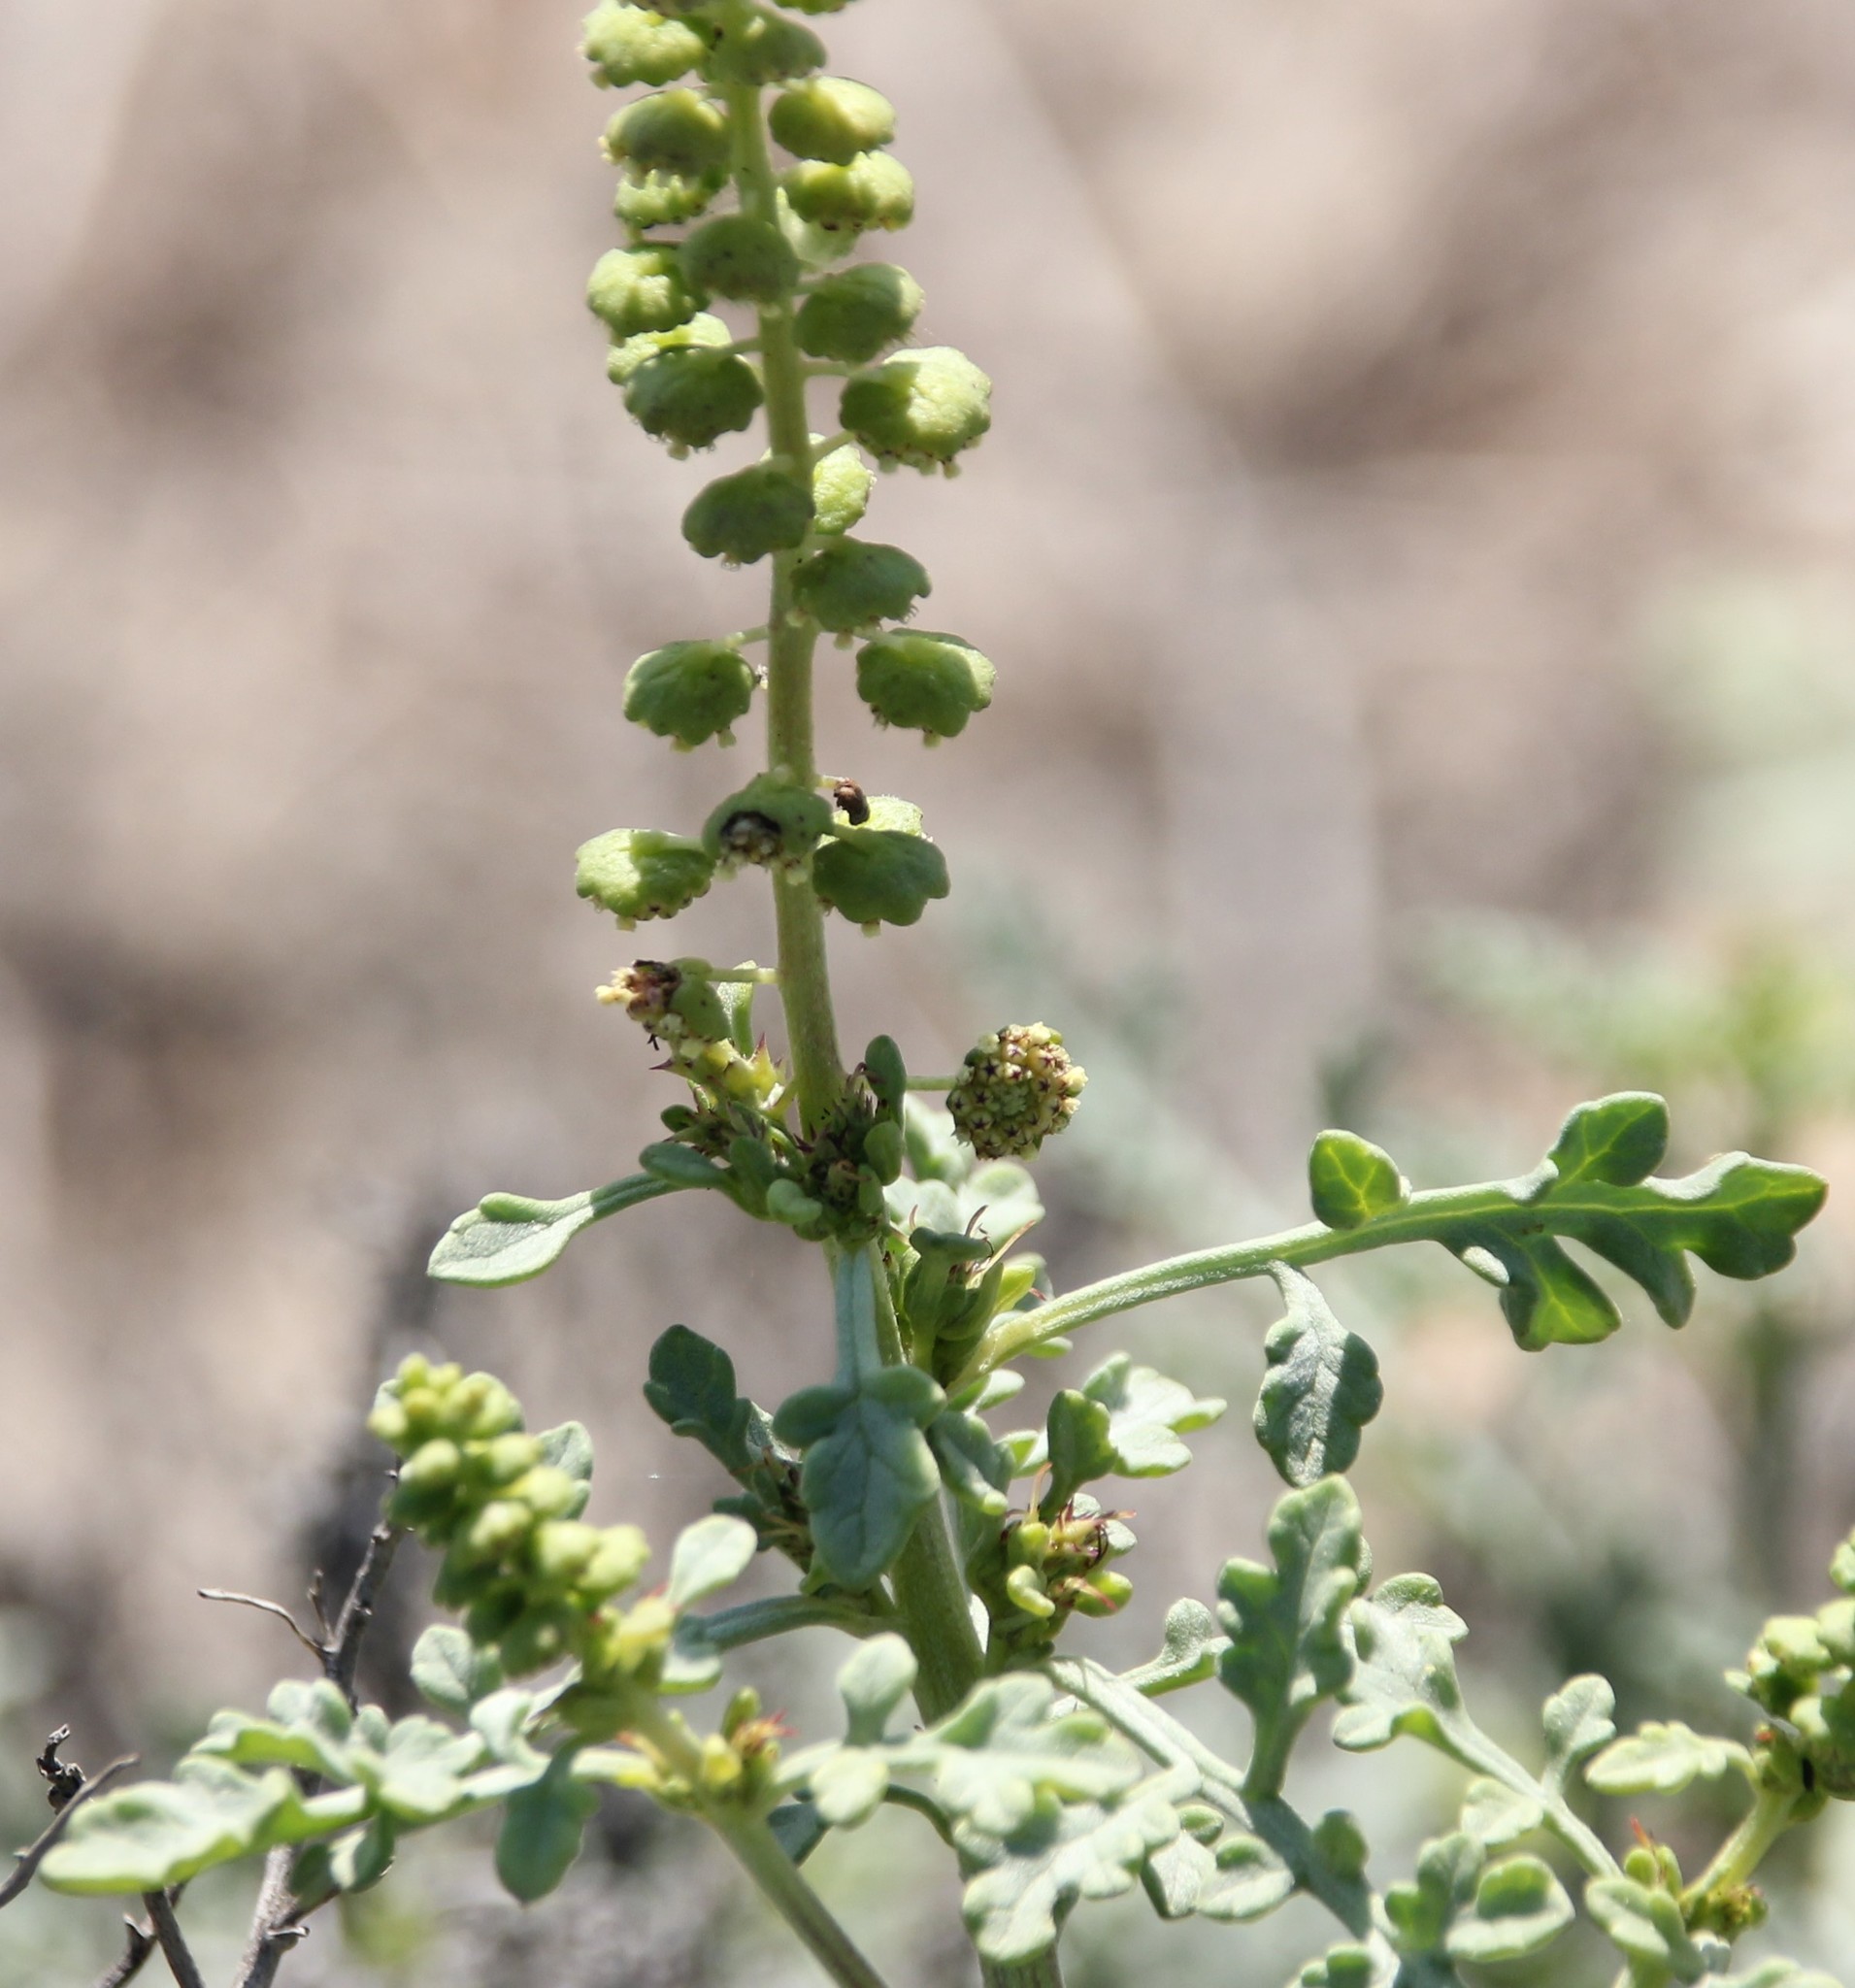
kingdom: Plantae
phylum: Tracheophyta
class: Magnoliopsida
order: Asterales
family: Asteraceae
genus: Ambrosia
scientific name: Ambrosia chamissonis
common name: Beachbur
